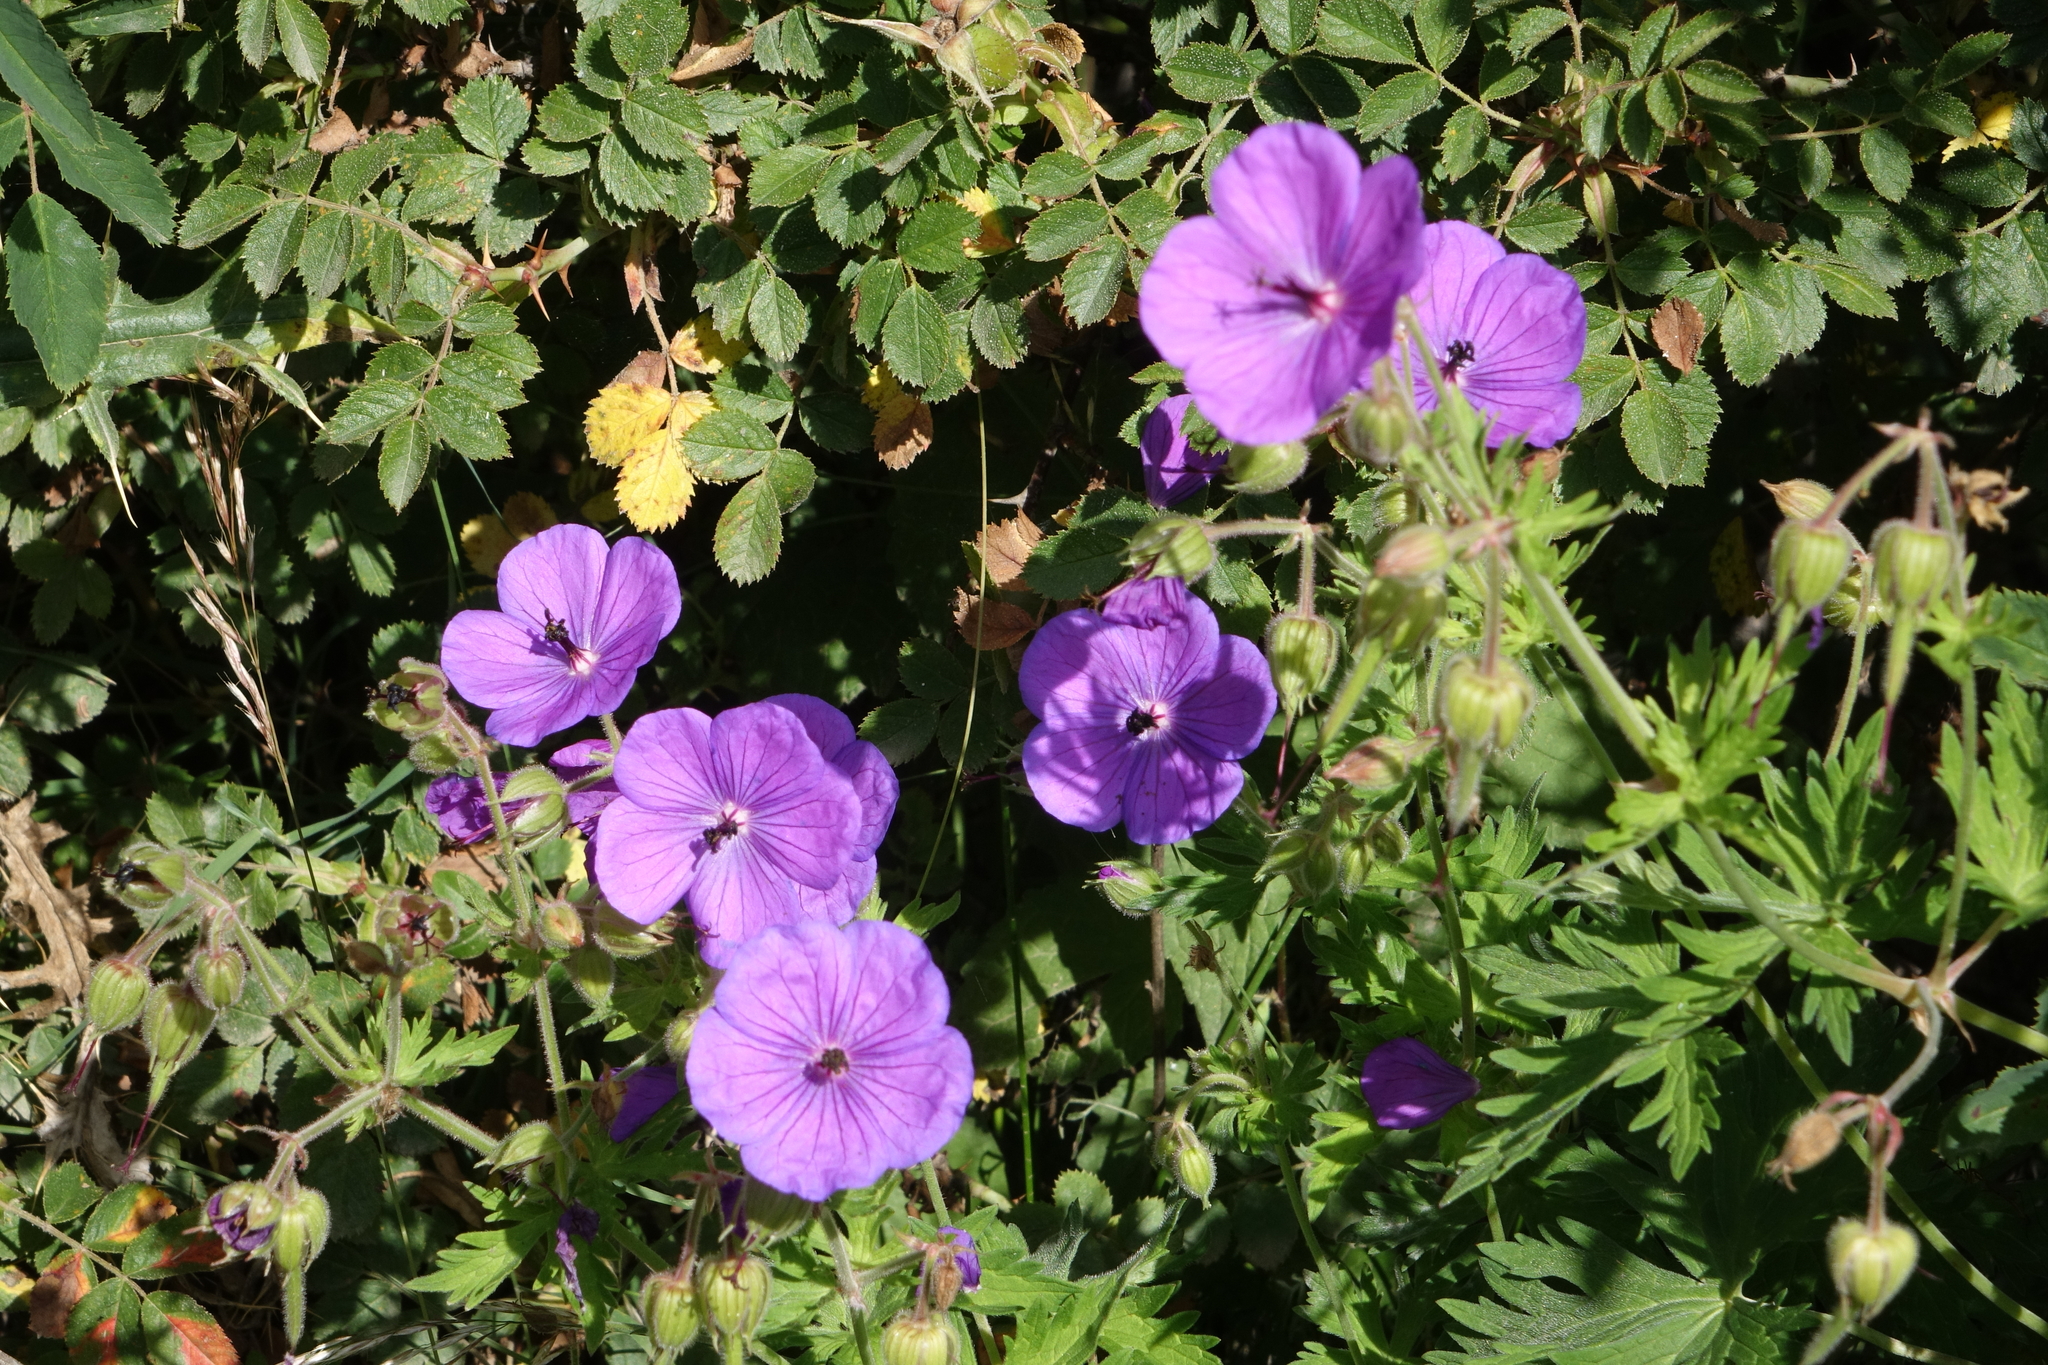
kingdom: Plantae
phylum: Tracheophyta
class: Magnoliopsida
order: Geraniales
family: Geraniaceae
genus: Geranium
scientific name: Geranium ruprechtii
